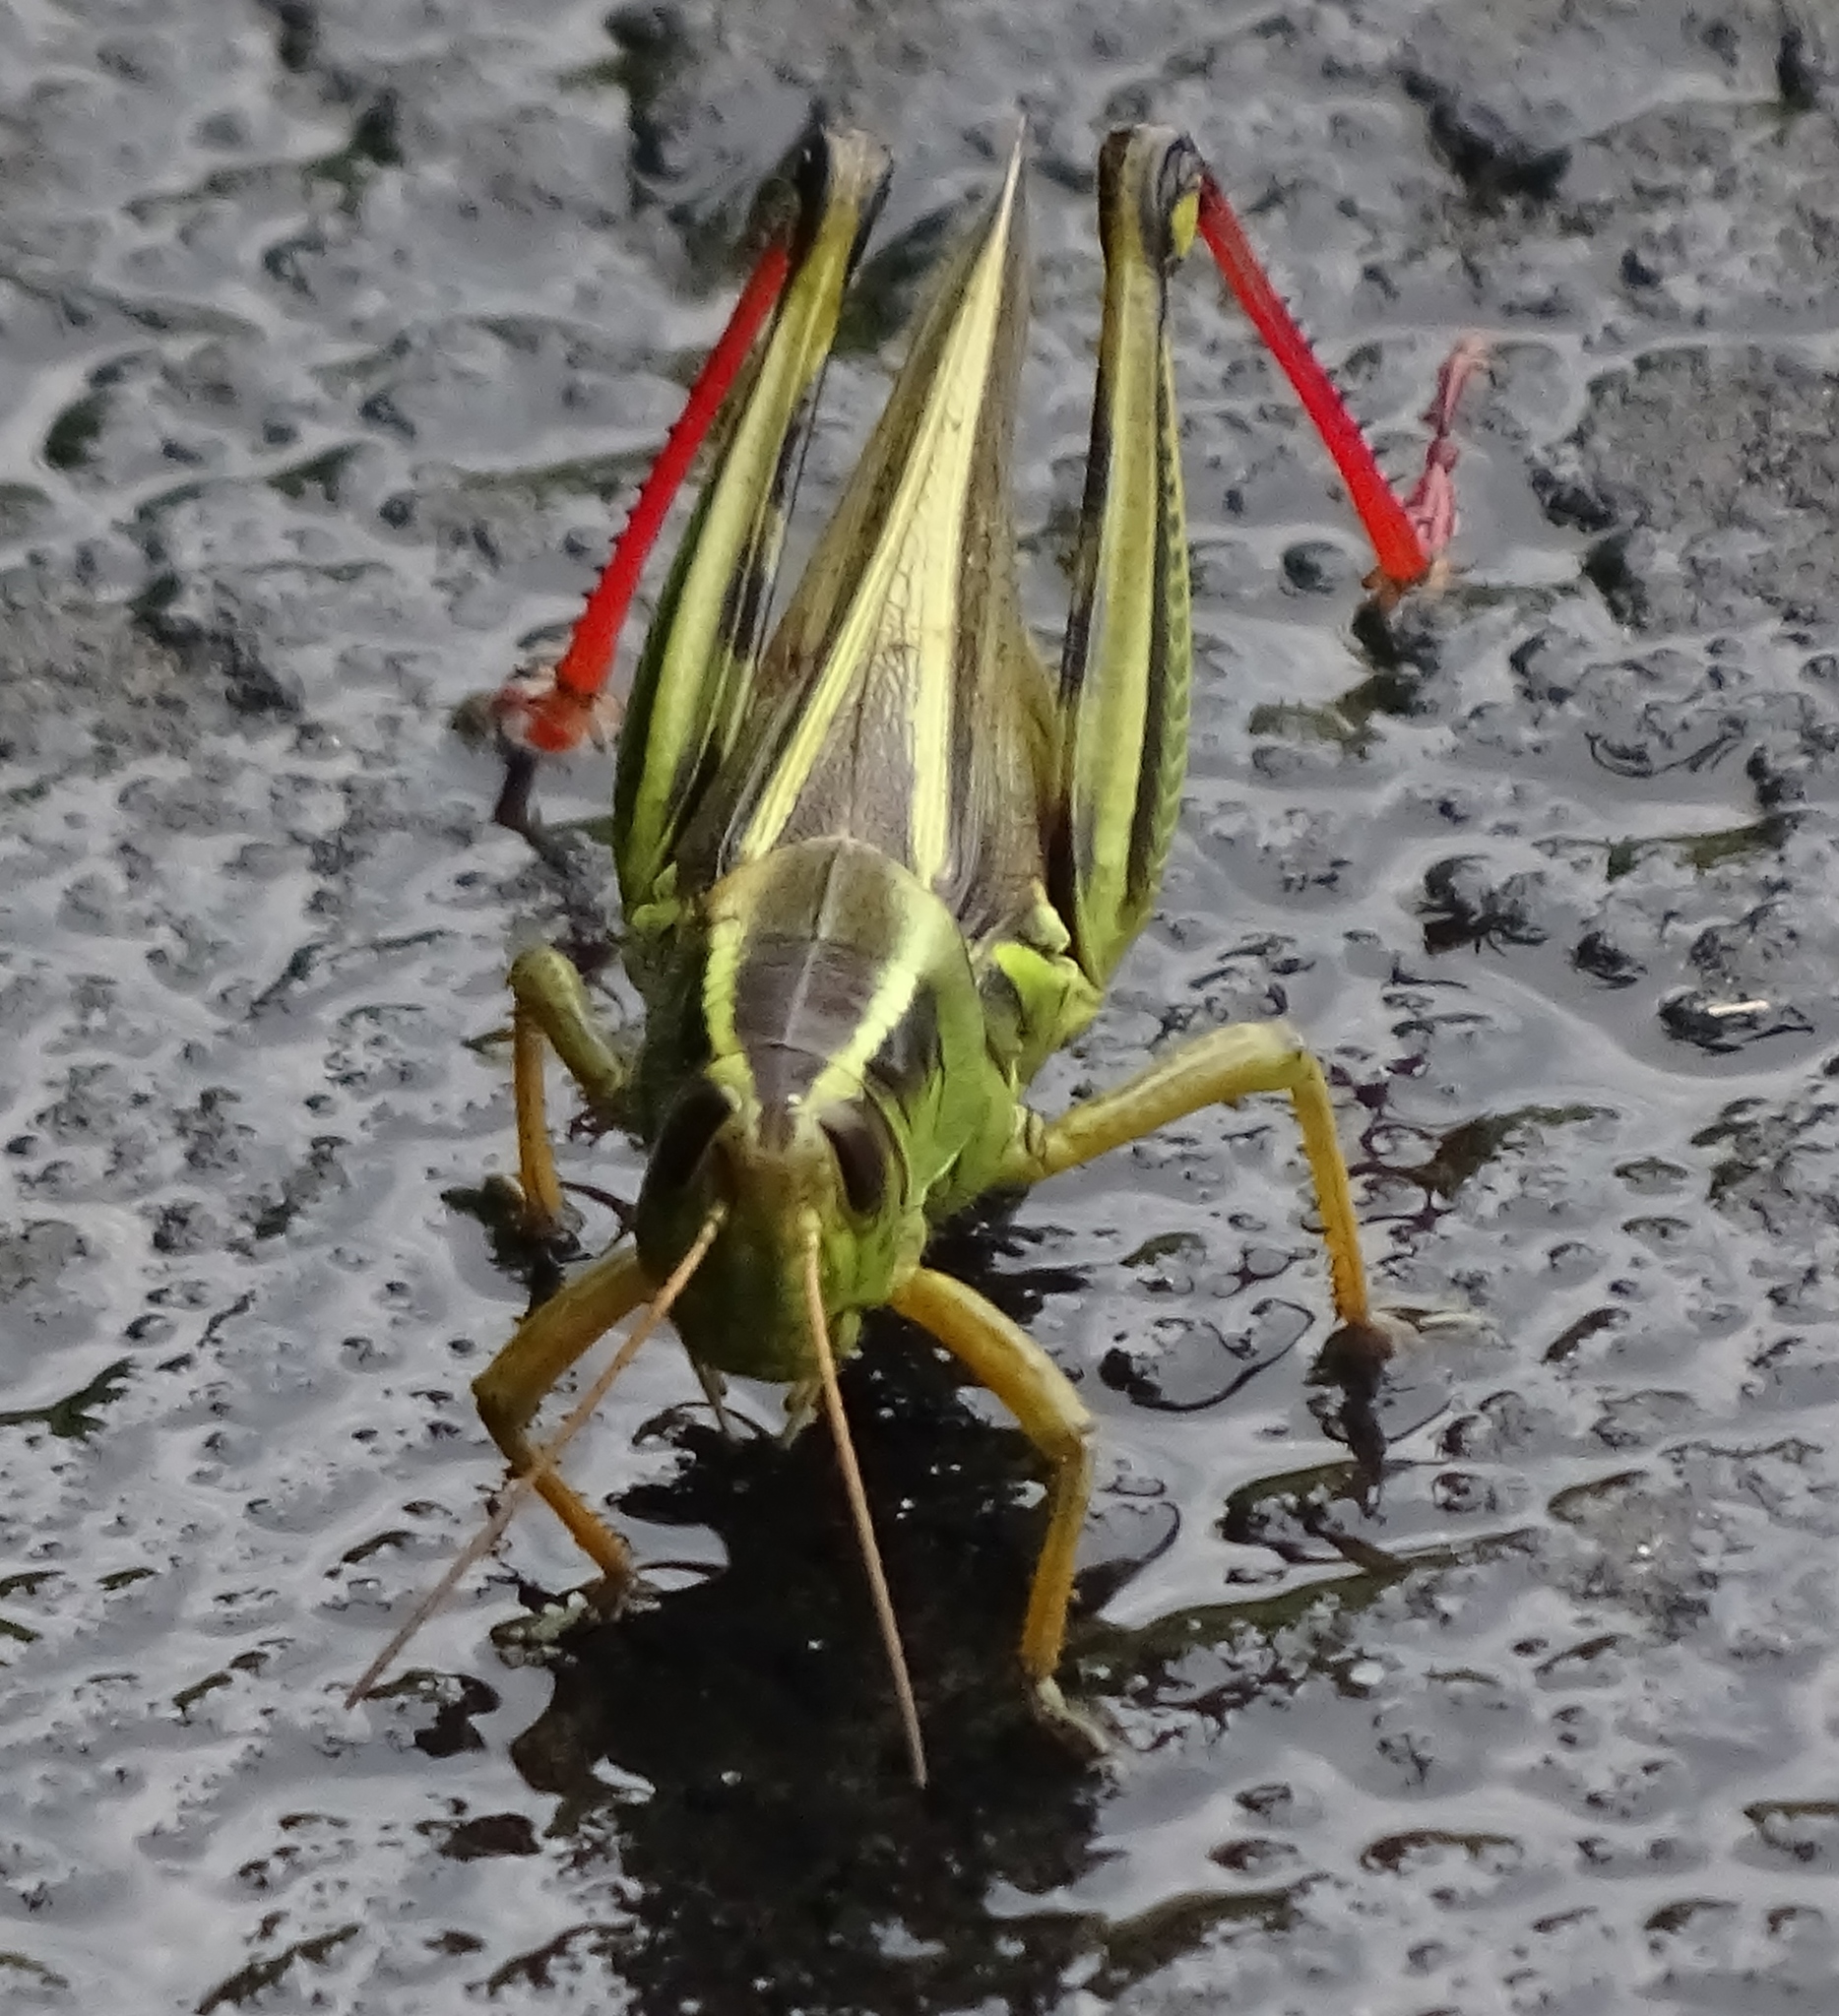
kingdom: Animalia
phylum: Arthropoda
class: Insecta
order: Orthoptera
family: Acrididae
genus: Melanoplus
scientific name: Melanoplus bivittatus
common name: Two-striped grasshopper
